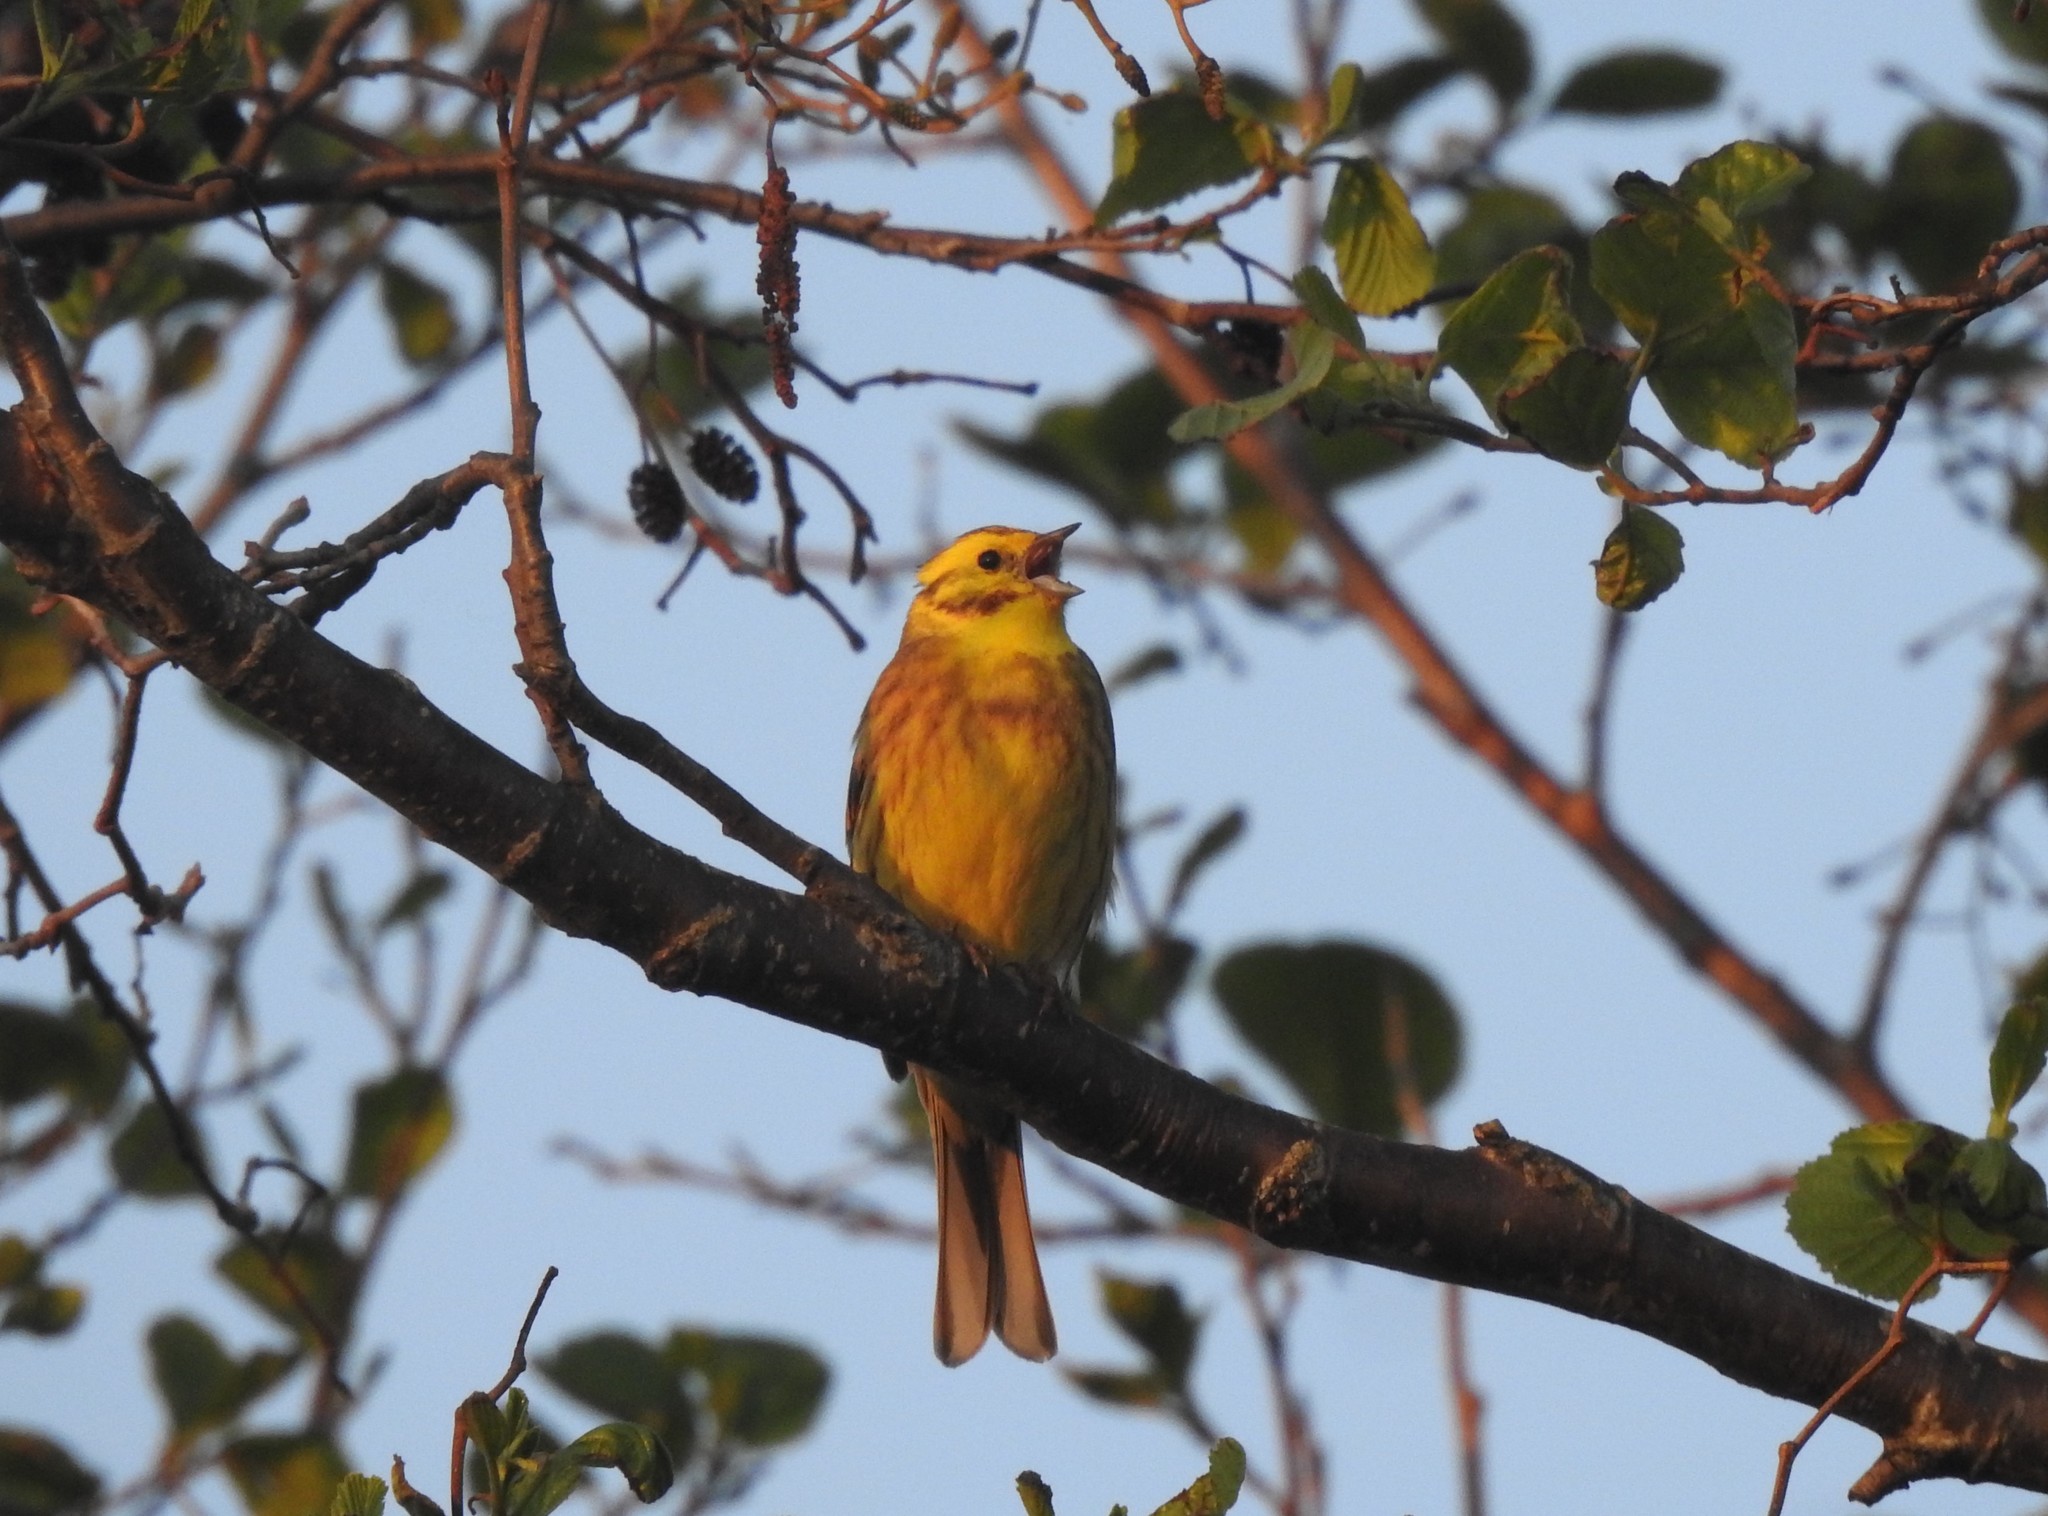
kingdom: Animalia
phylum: Chordata
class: Aves
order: Passeriformes
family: Emberizidae
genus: Emberiza
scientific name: Emberiza citrinella
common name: Yellowhammer
